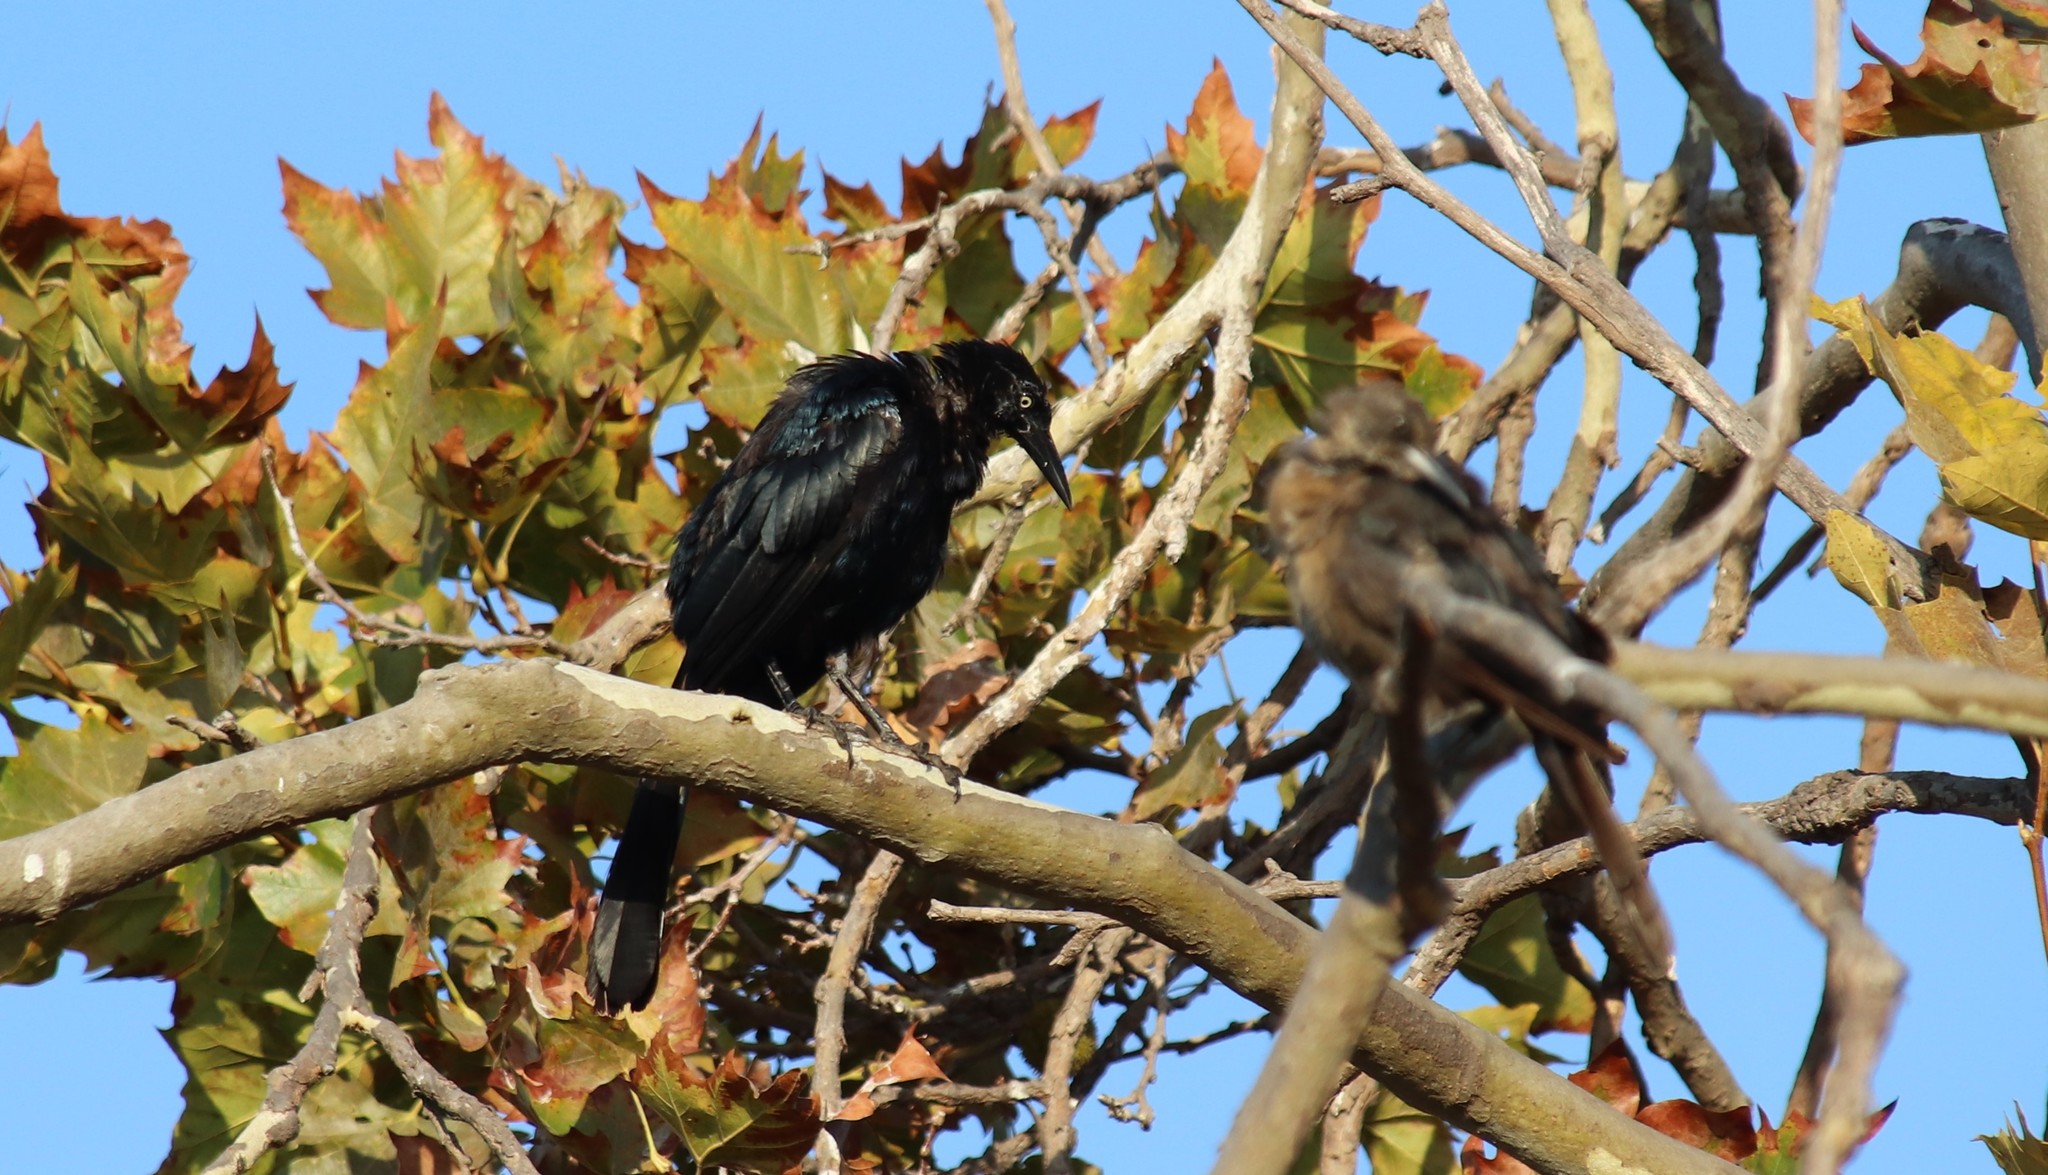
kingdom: Animalia
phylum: Chordata
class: Aves
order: Passeriformes
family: Icteridae
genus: Quiscalus
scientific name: Quiscalus mexicanus
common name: Great-tailed grackle
